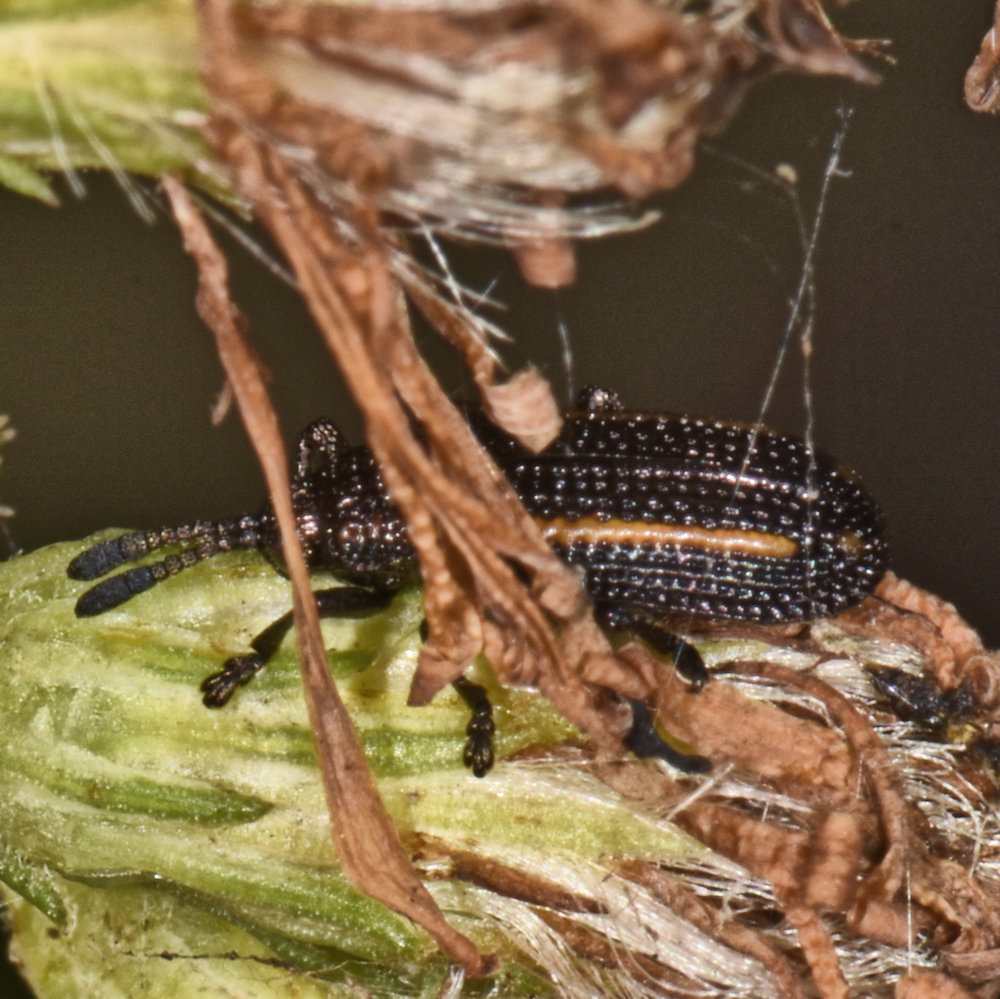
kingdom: Animalia
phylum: Arthropoda
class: Insecta
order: Coleoptera
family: Chrysomelidae
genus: Microrhopala
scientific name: Microrhopala xerene
